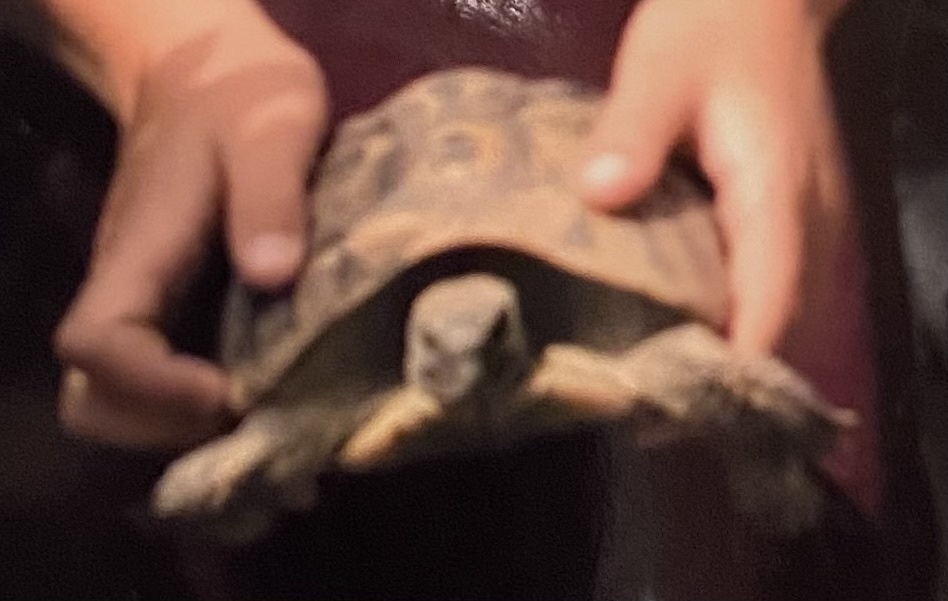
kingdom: Animalia
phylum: Chordata
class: Testudines
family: Testudinidae
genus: Testudo
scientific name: Testudo hermanni
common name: Hermann's tortoise
